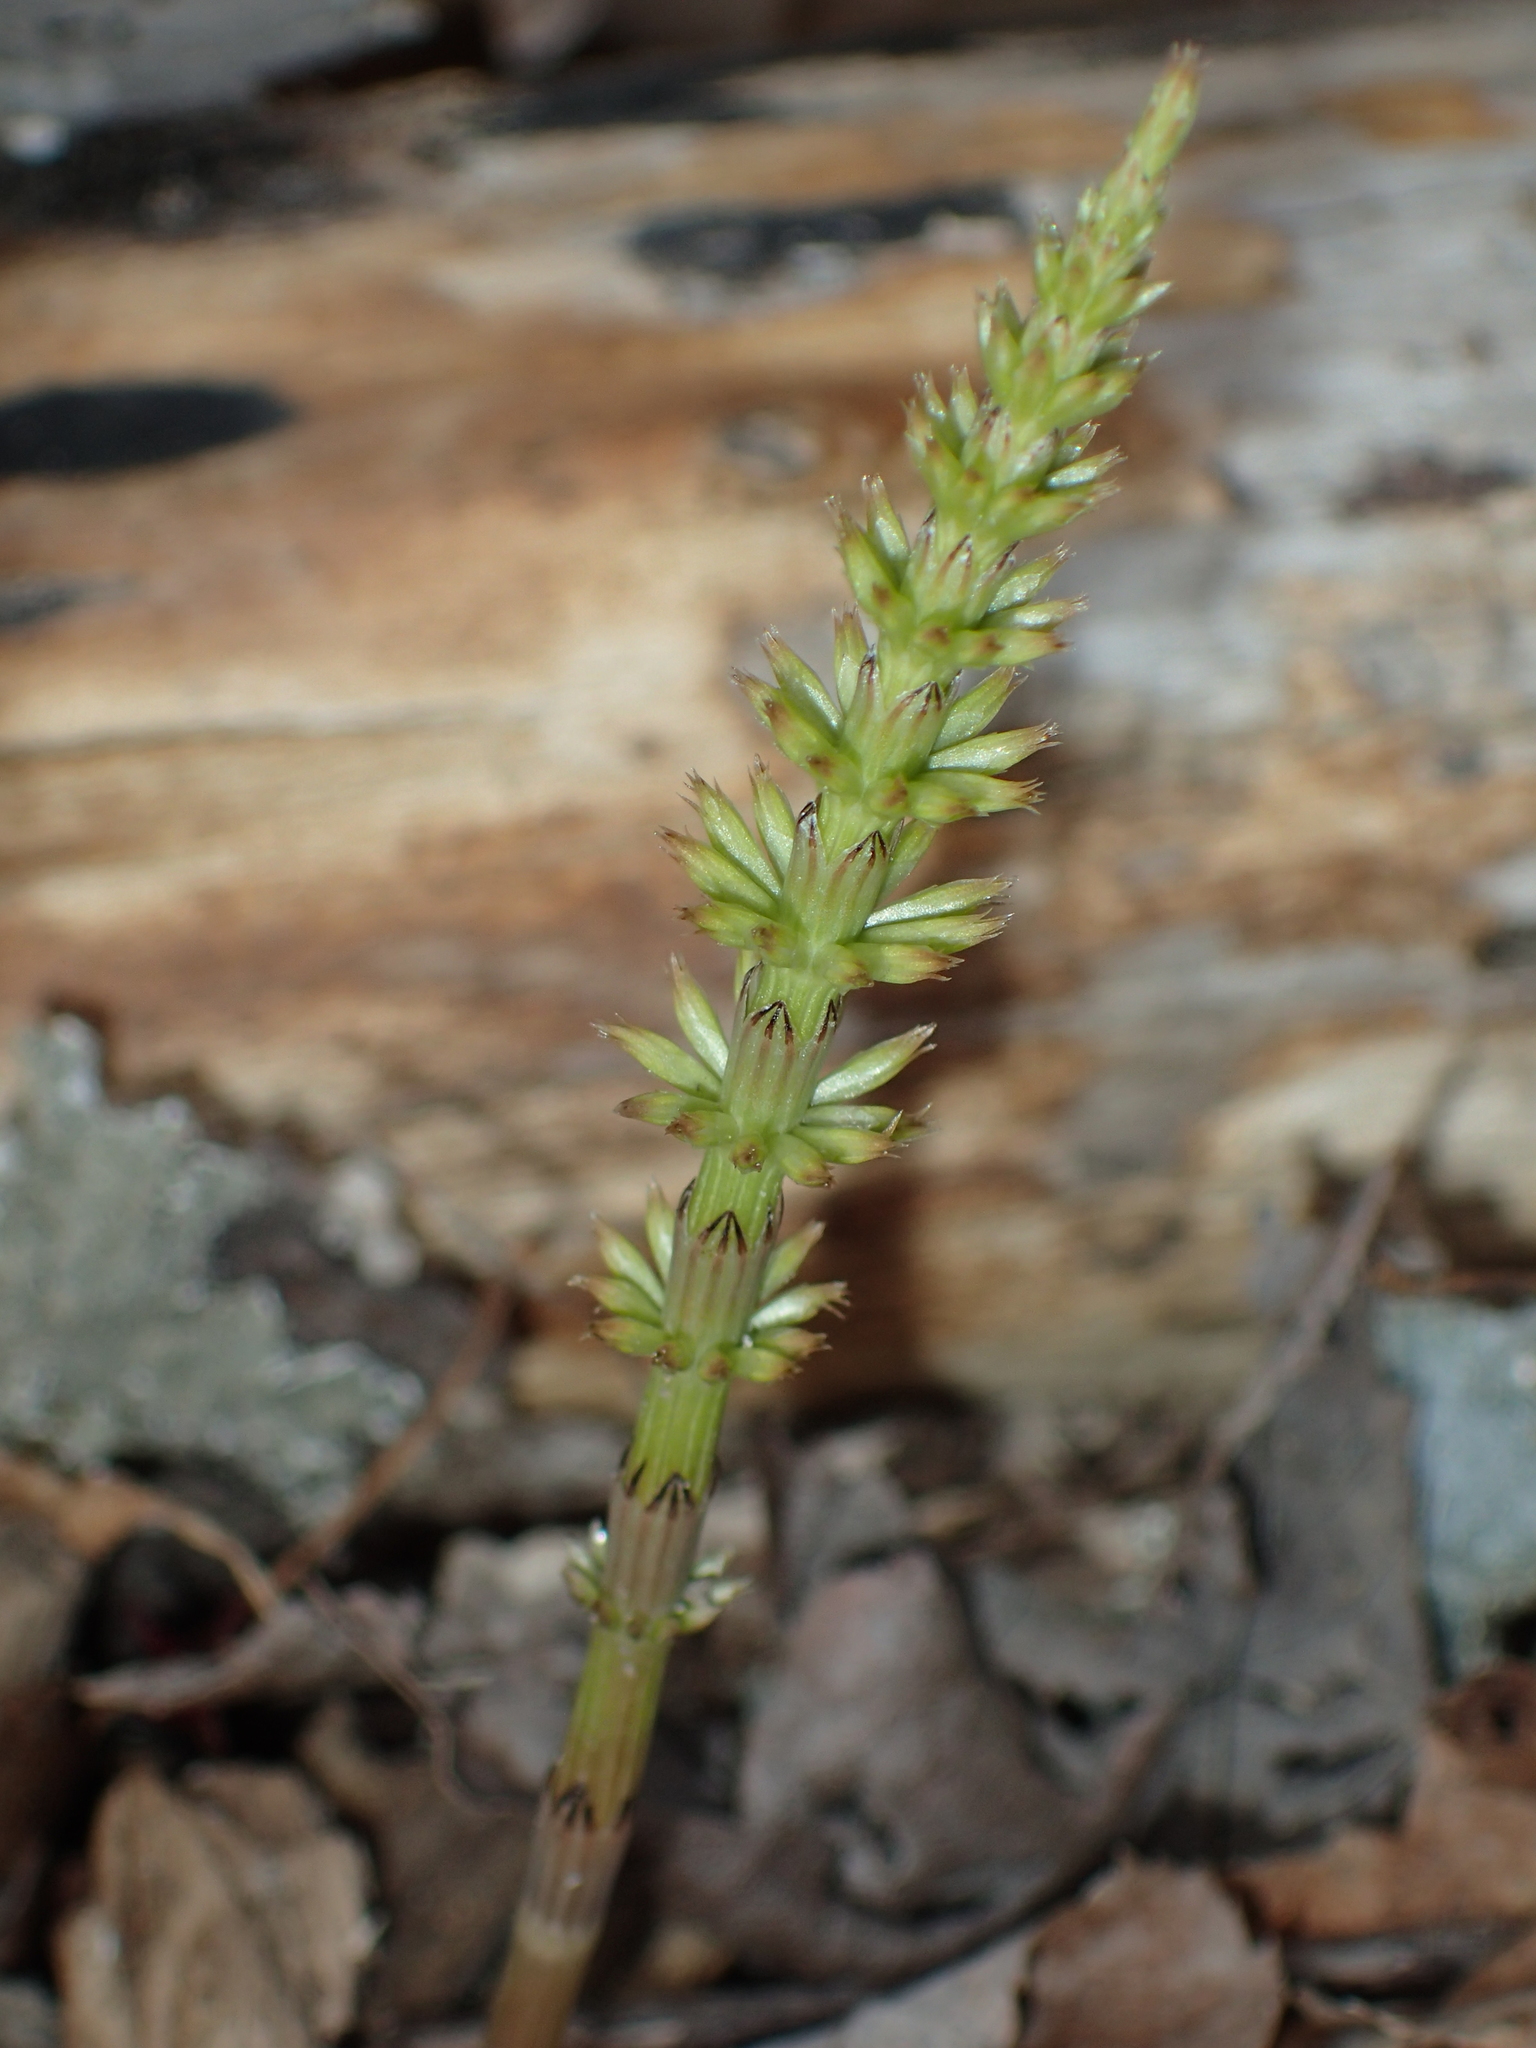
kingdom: Plantae
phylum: Tracheophyta
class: Polypodiopsida
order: Equisetales
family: Equisetaceae
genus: Equisetum
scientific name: Equisetum arvense
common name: Field horsetail
